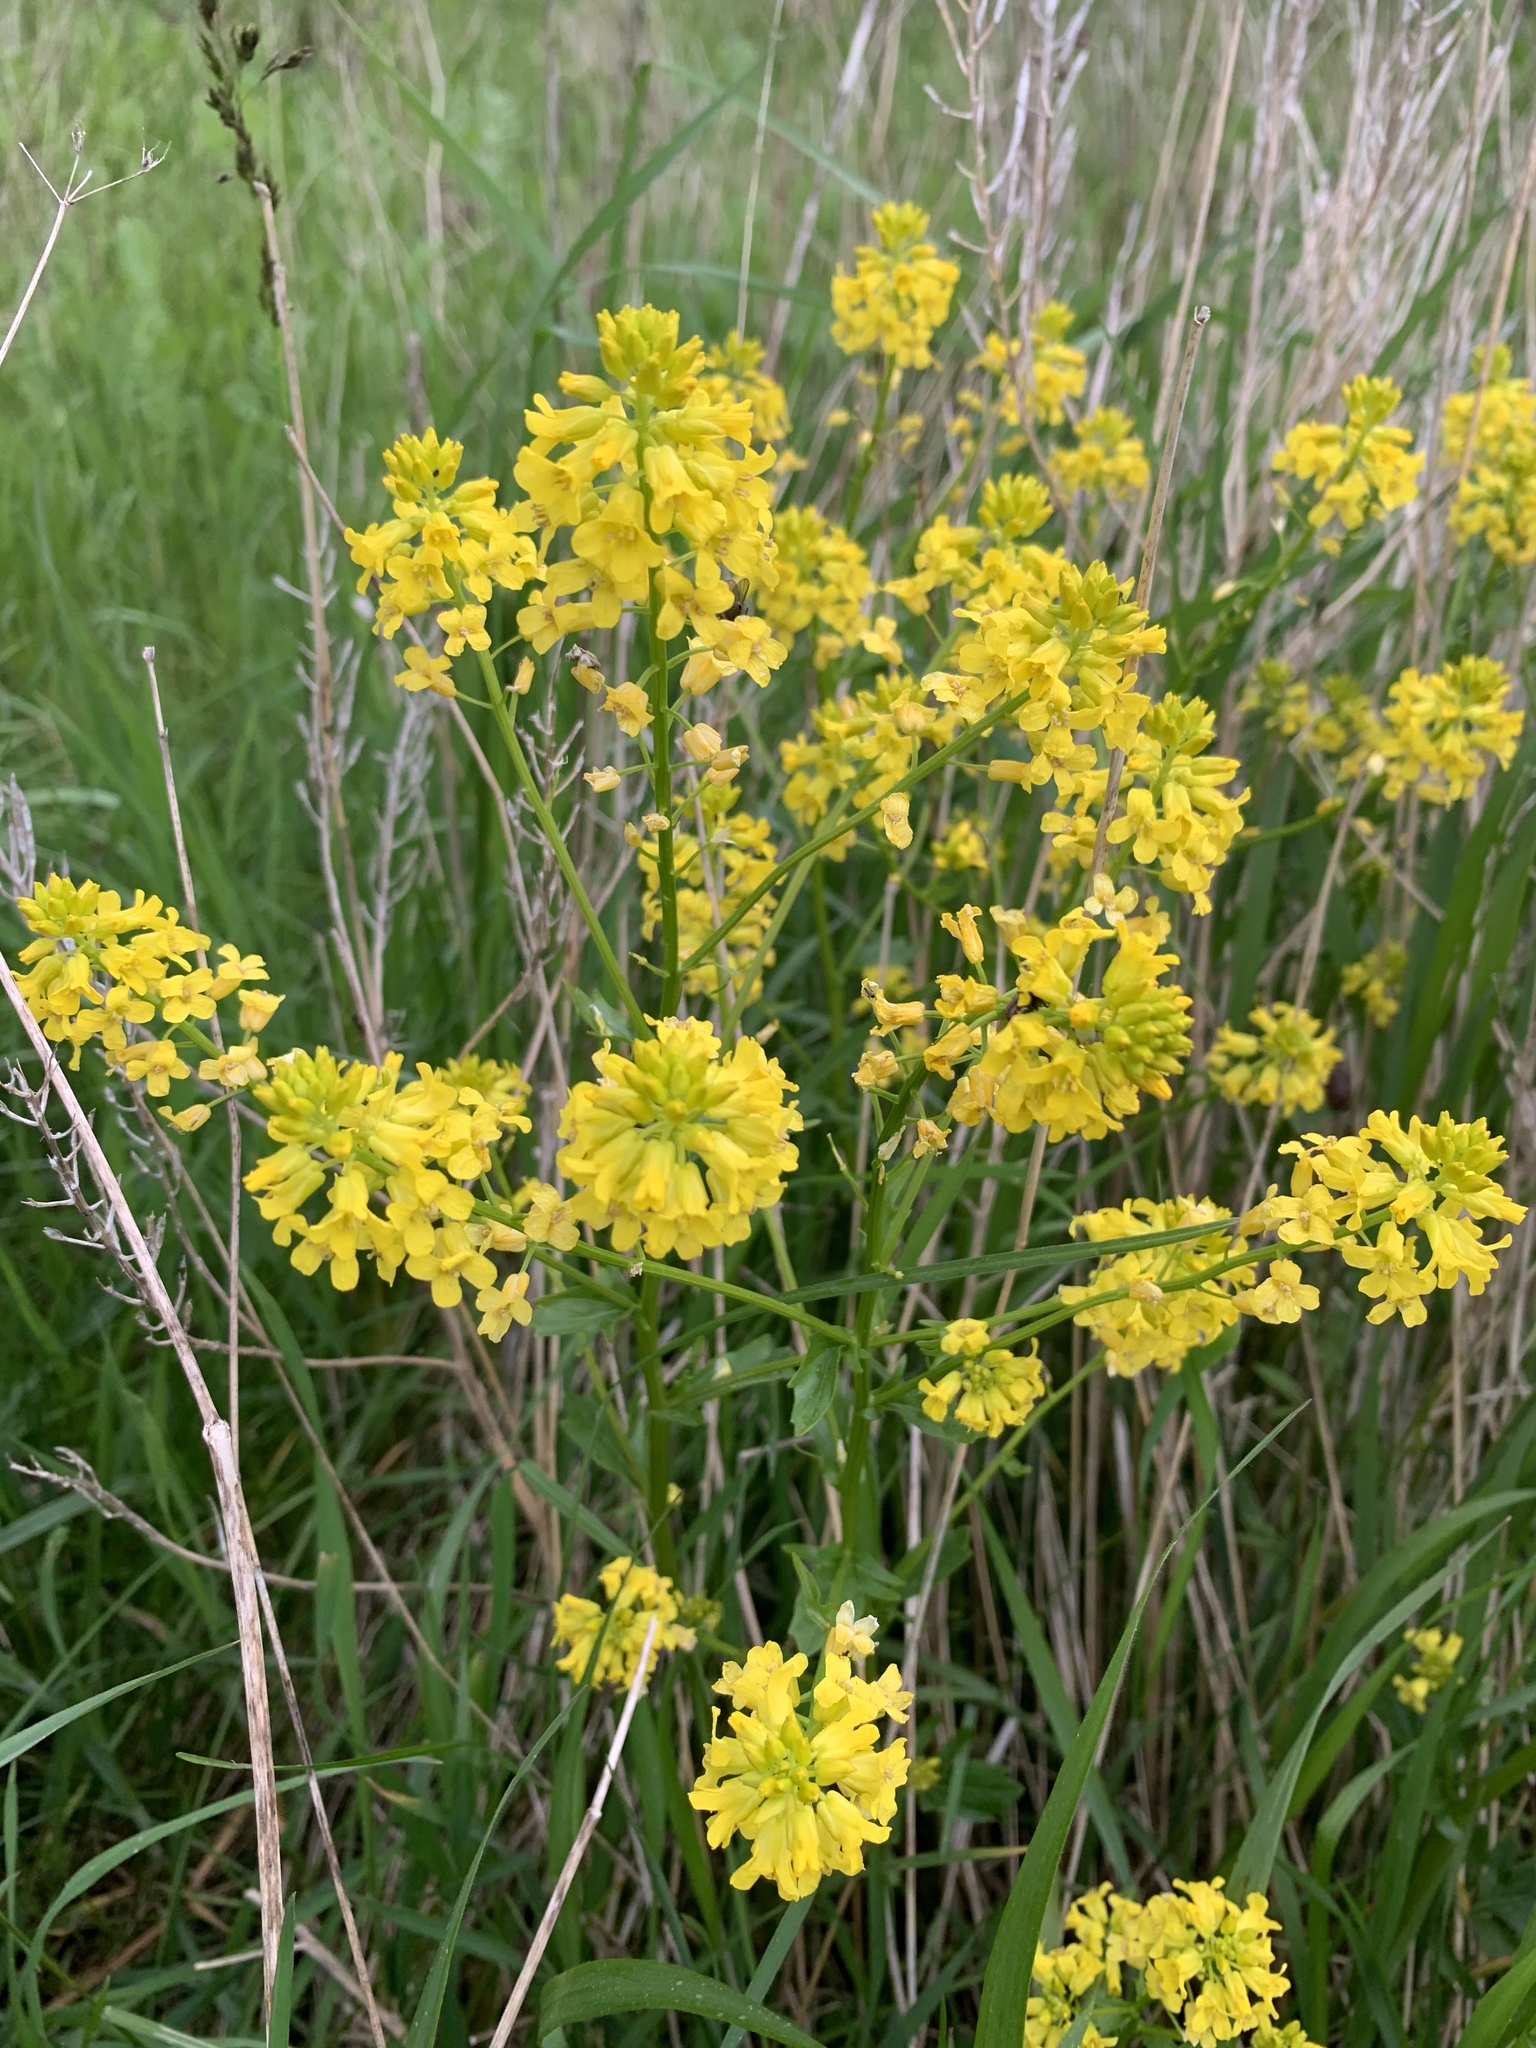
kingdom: Plantae
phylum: Tracheophyta
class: Magnoliopsida
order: Brassicales
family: Brassicaceae
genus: Barbarea
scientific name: Barbarea vulgaris
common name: Cressy-greens
